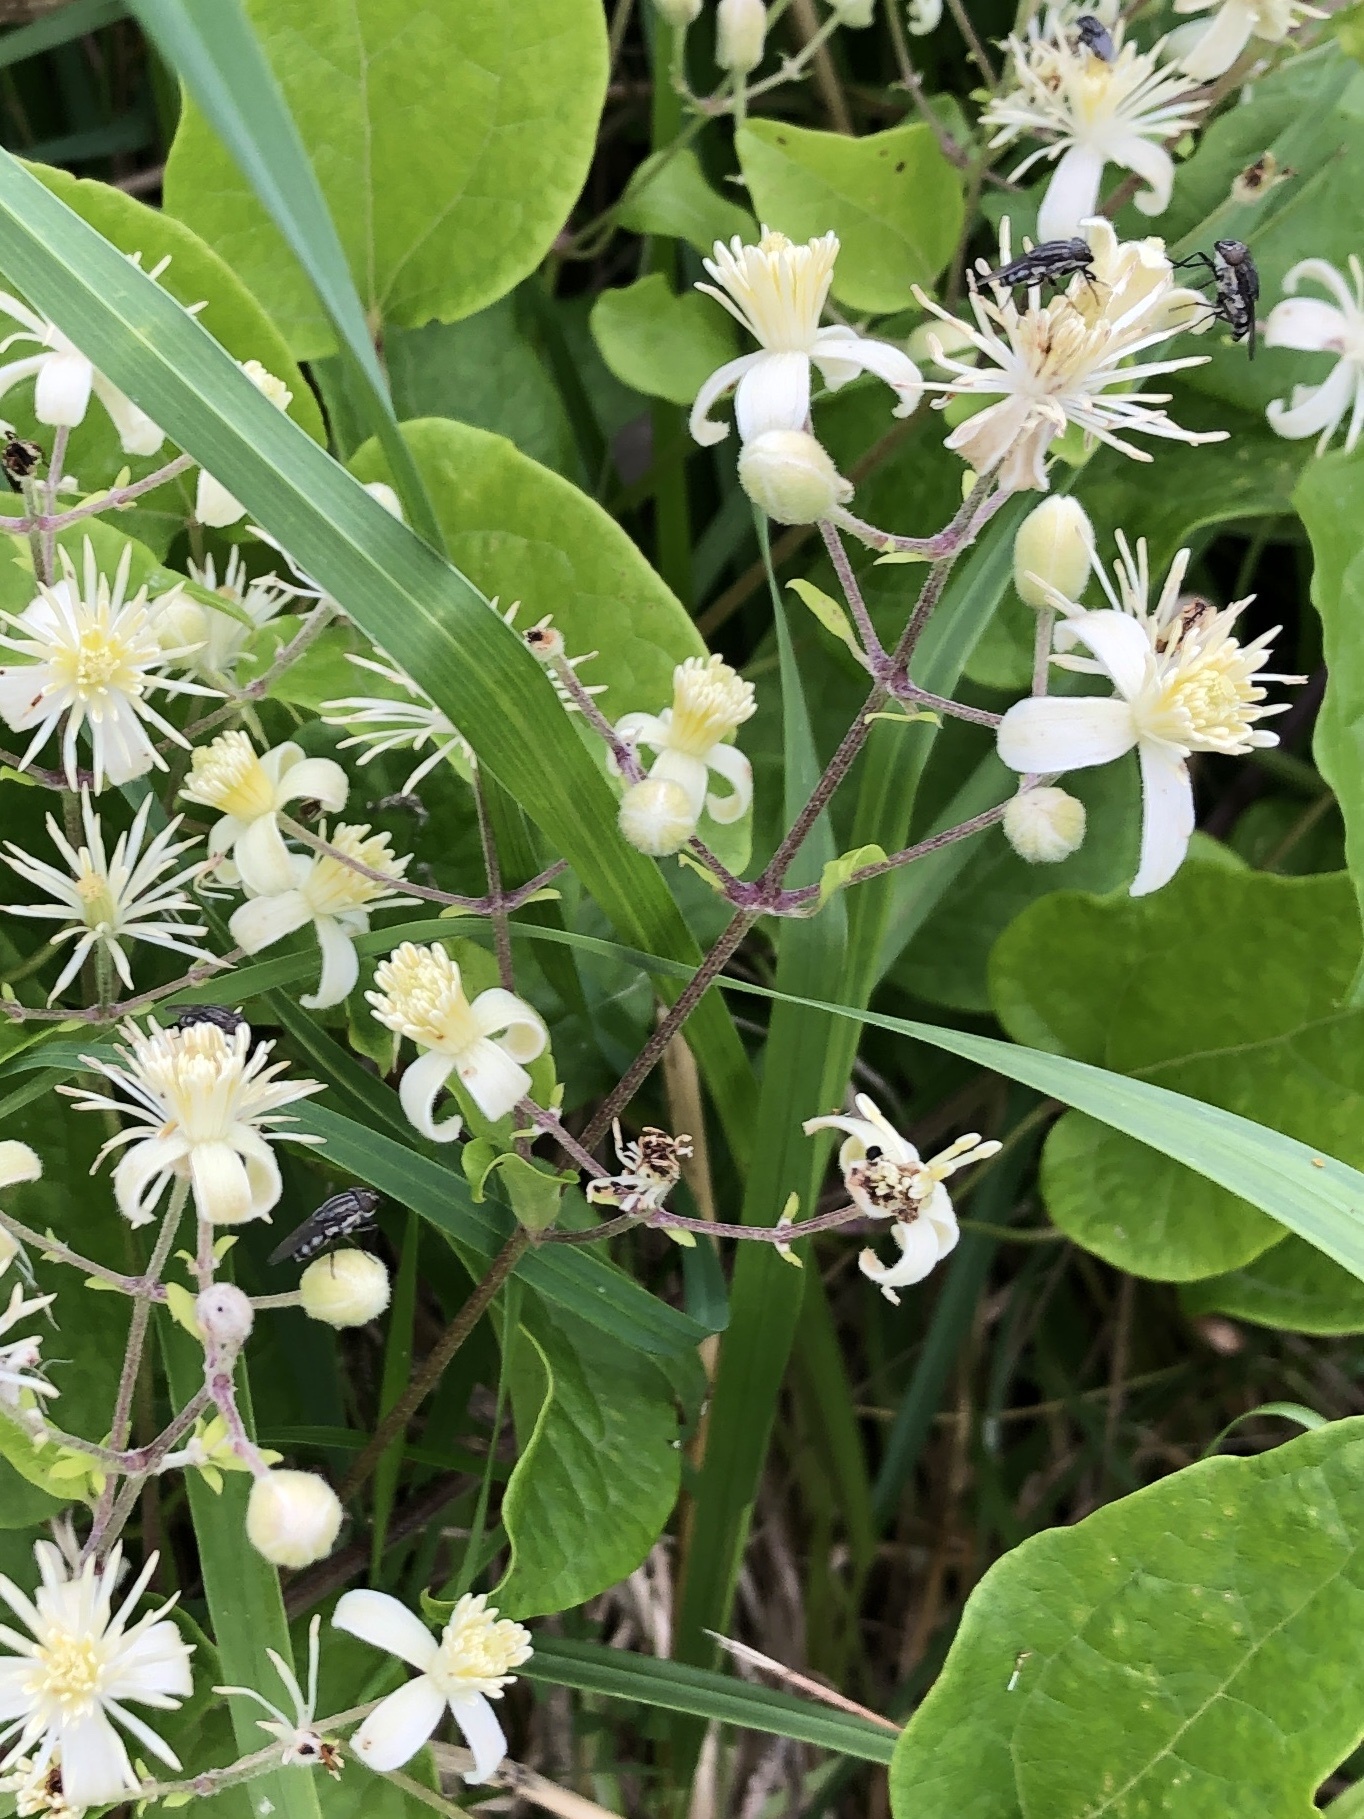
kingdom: Plantae
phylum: Tracheophyta
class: Magnoliopsida
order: Ranunculales
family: Ranunculaceae
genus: Clematis
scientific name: Clematis vitalba
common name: Evergreen clematis
